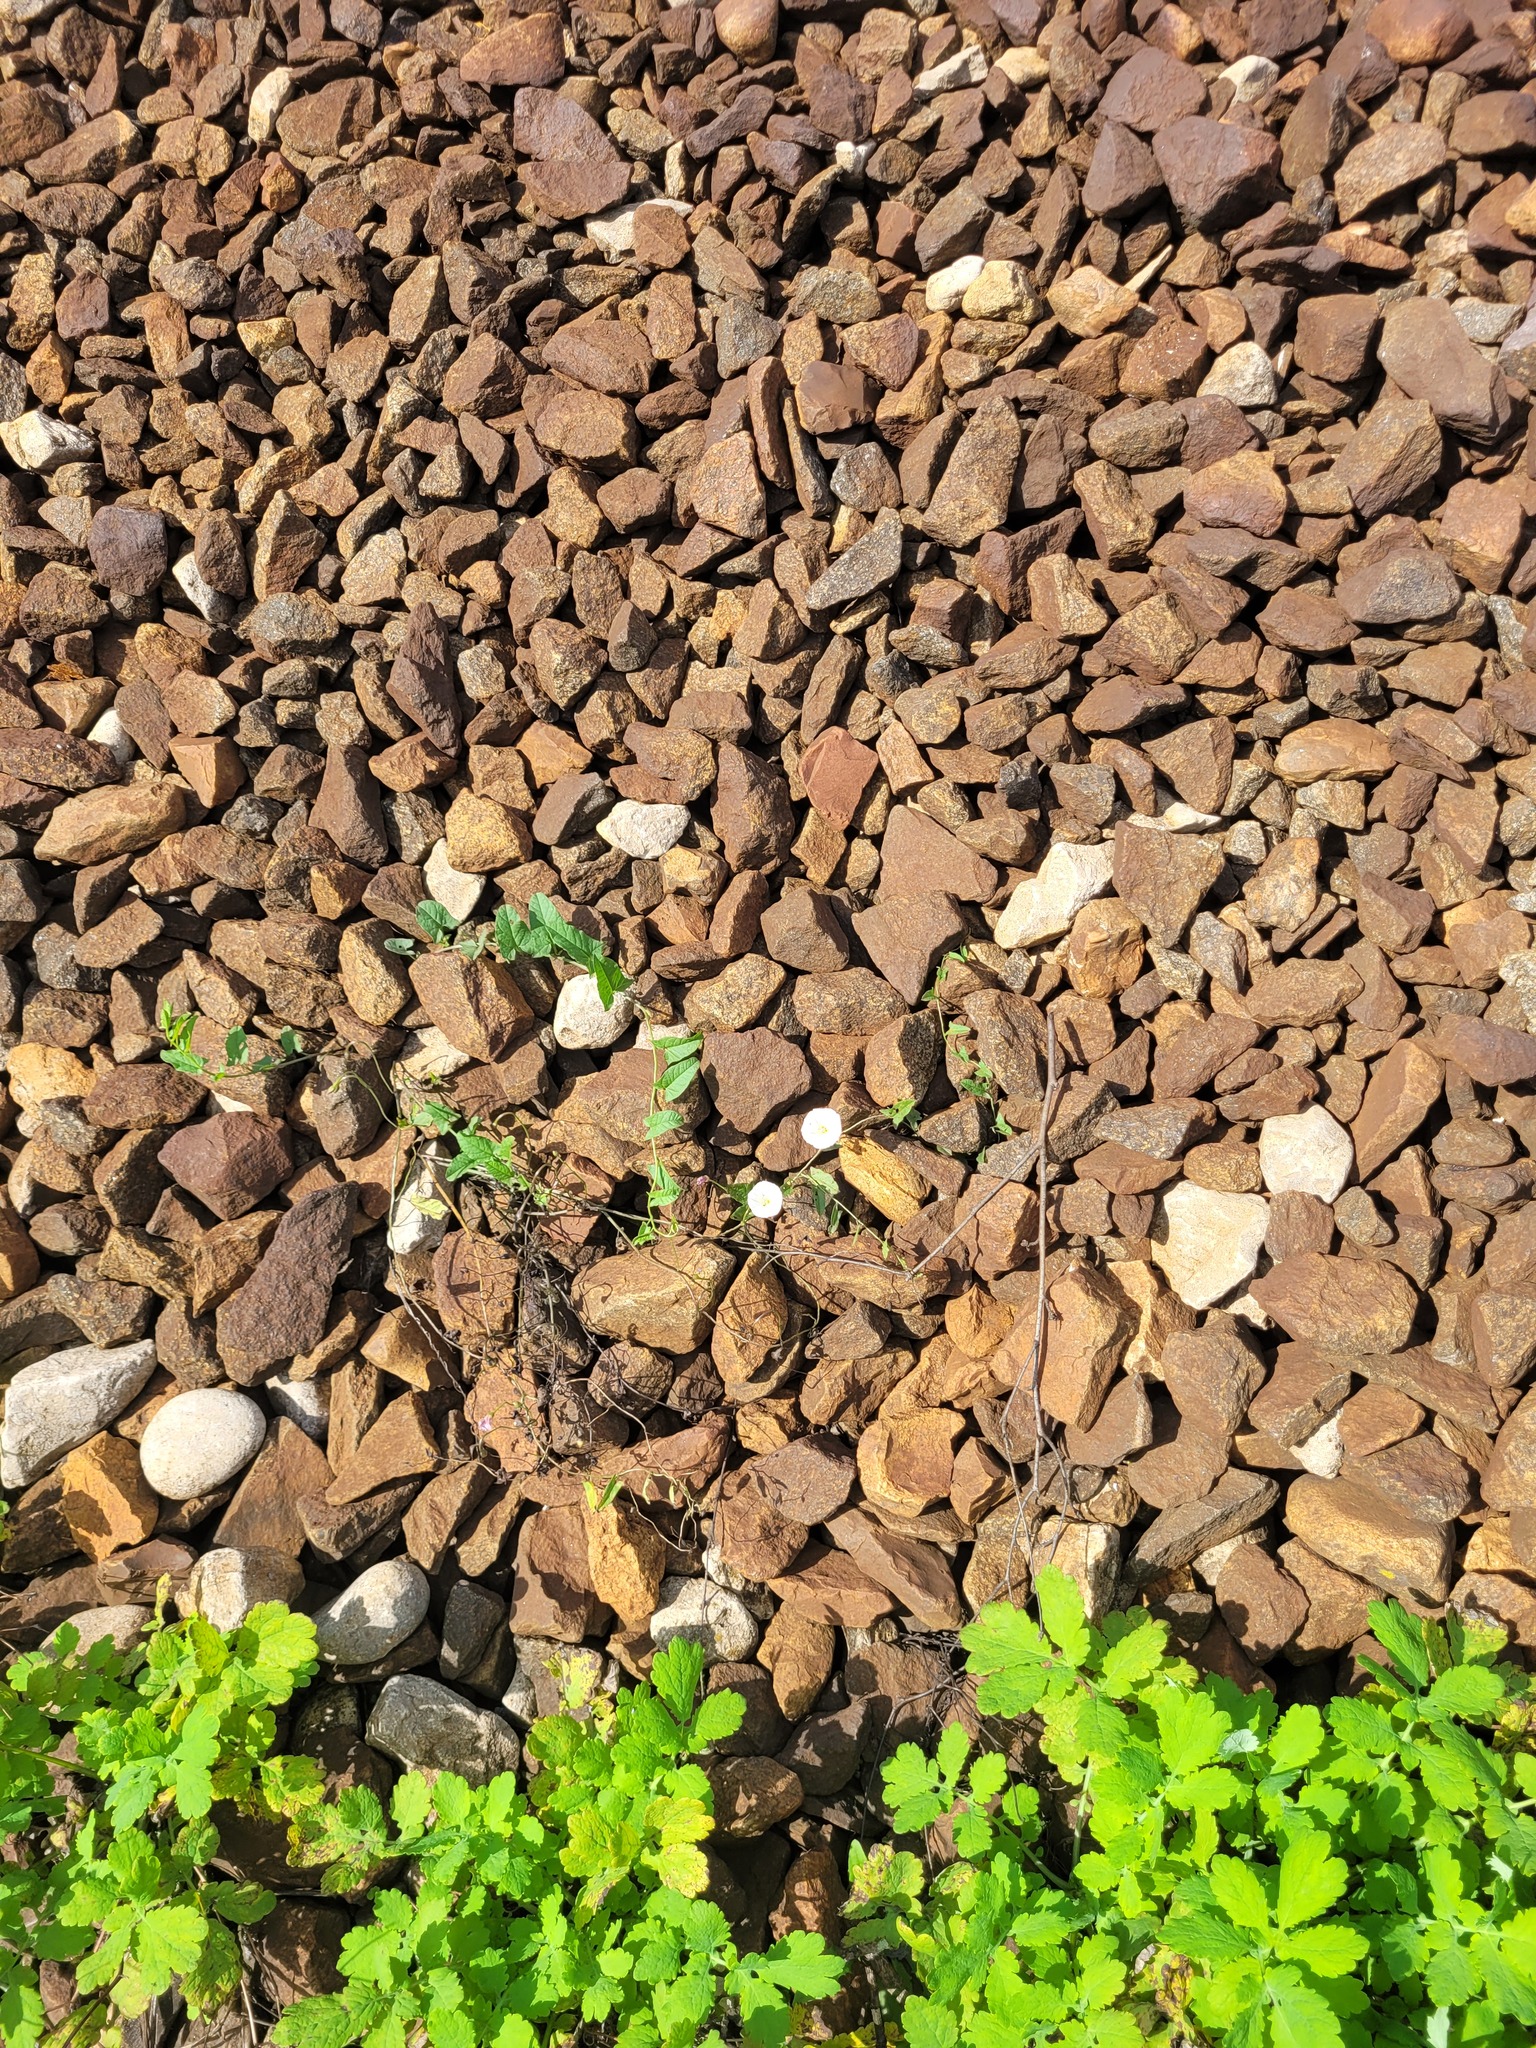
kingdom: Plantae
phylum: Tracheophyta
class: Magnoliopsida
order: Solanales
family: Convolvulaceae
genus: Convolvulus
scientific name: Convolvulus arvensis
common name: Field bindweed
